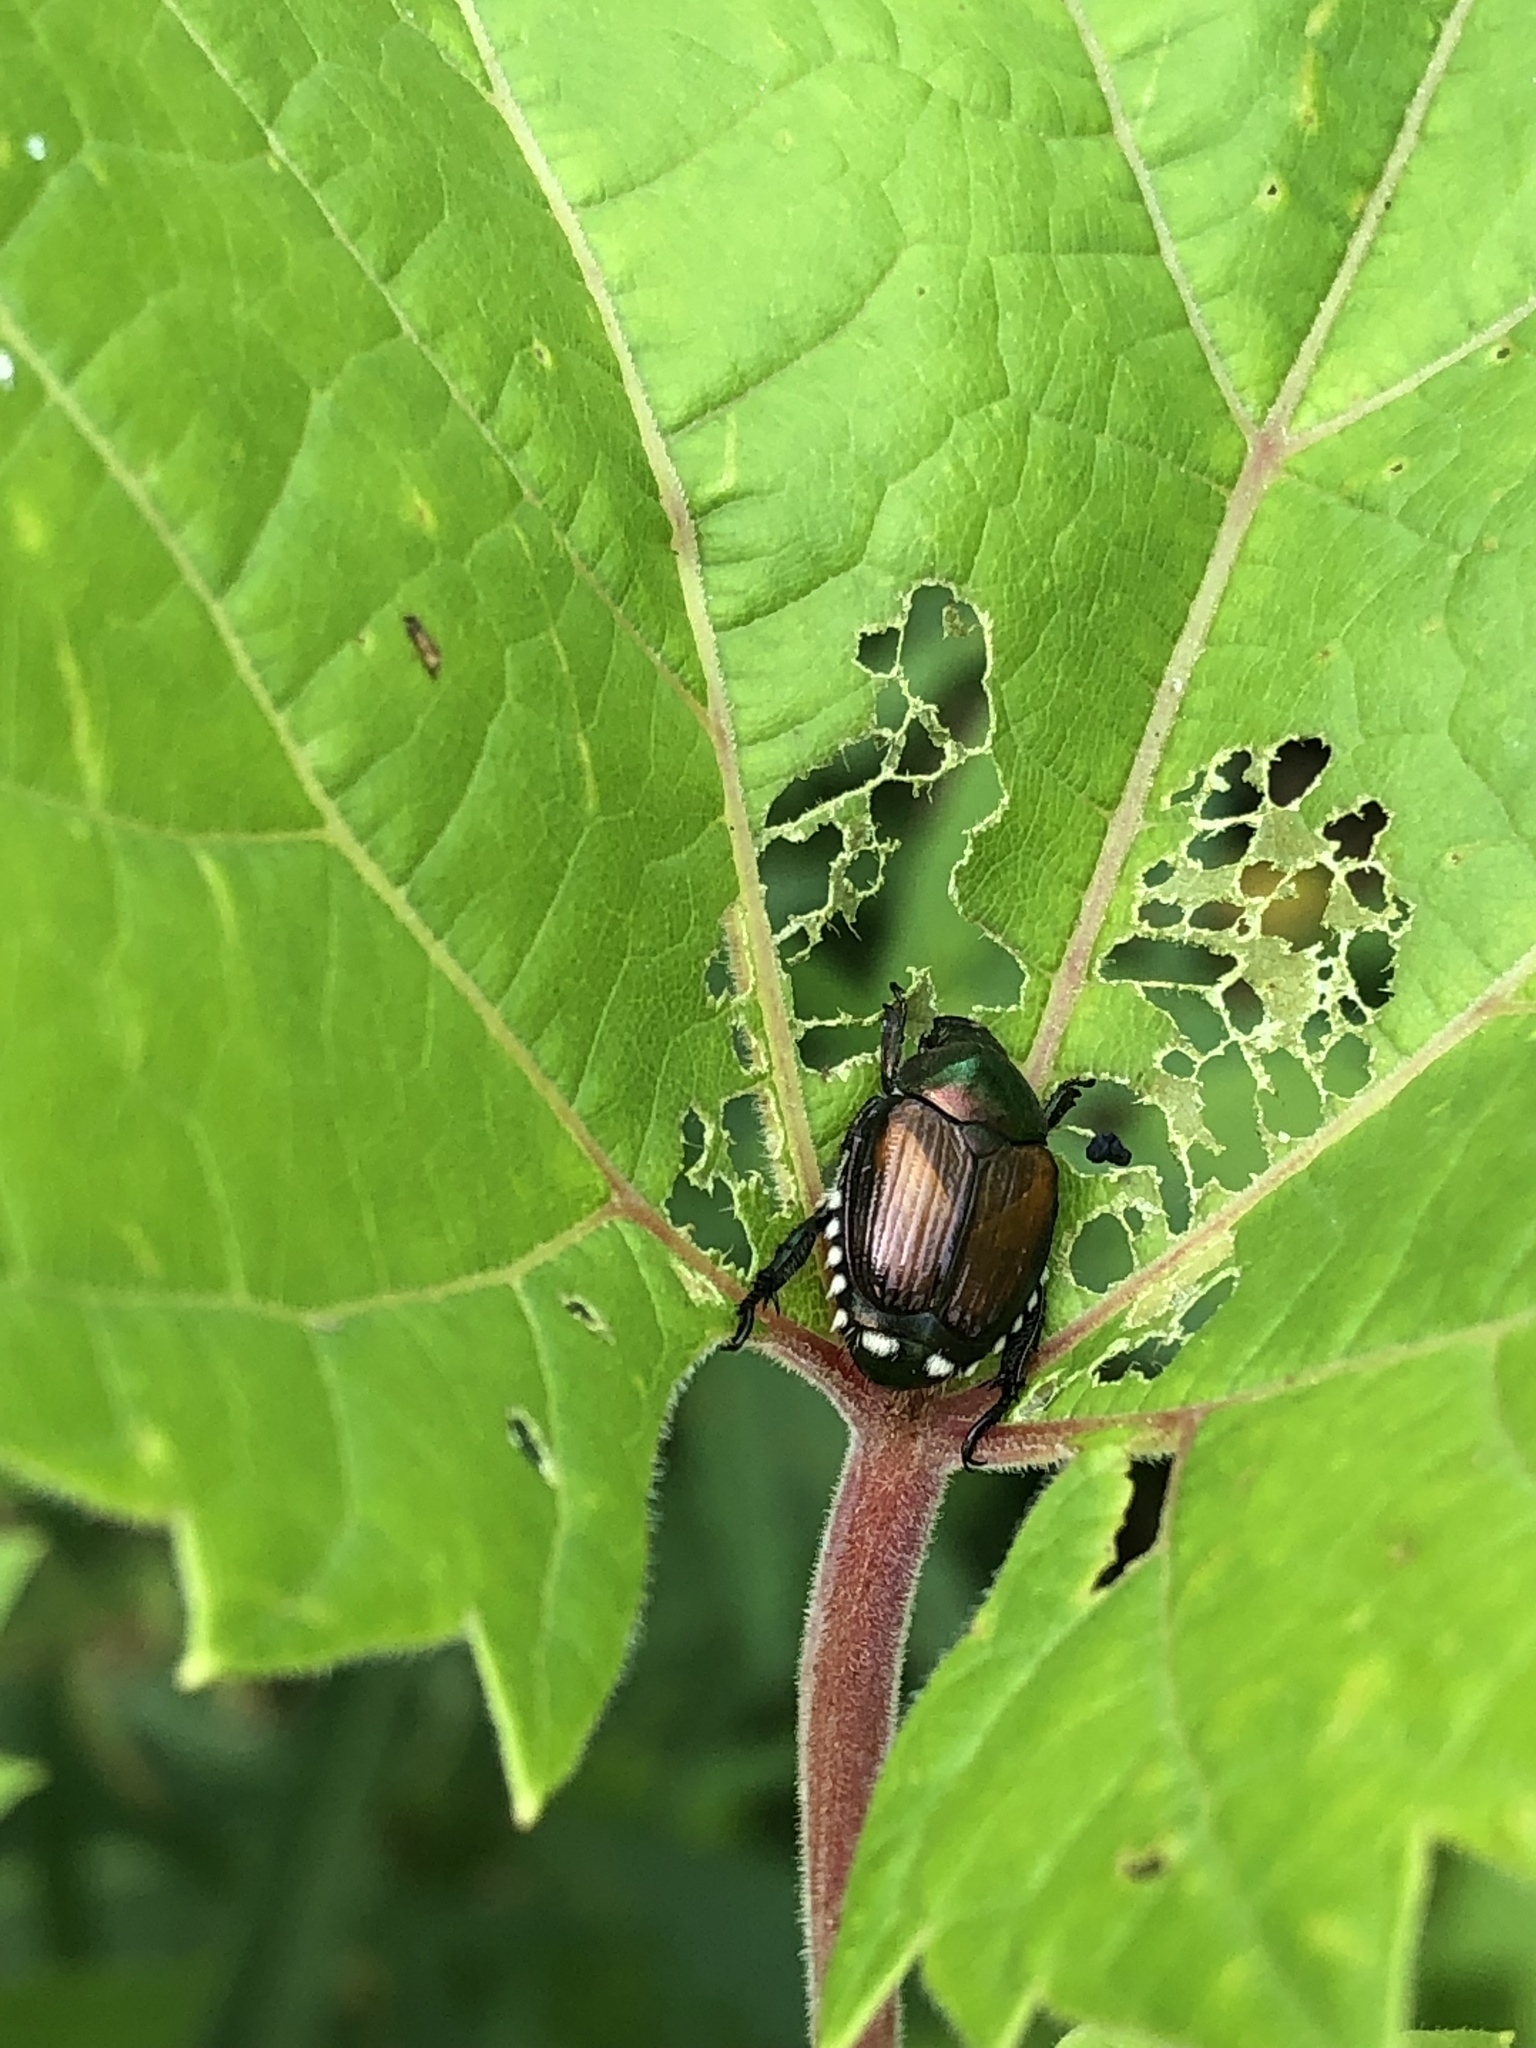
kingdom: Animalia
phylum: Arthropoda
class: Insecta
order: Coleoptera
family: Scarabaeidae
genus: Popillia
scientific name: Popillia japonica
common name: Japanese beetle
